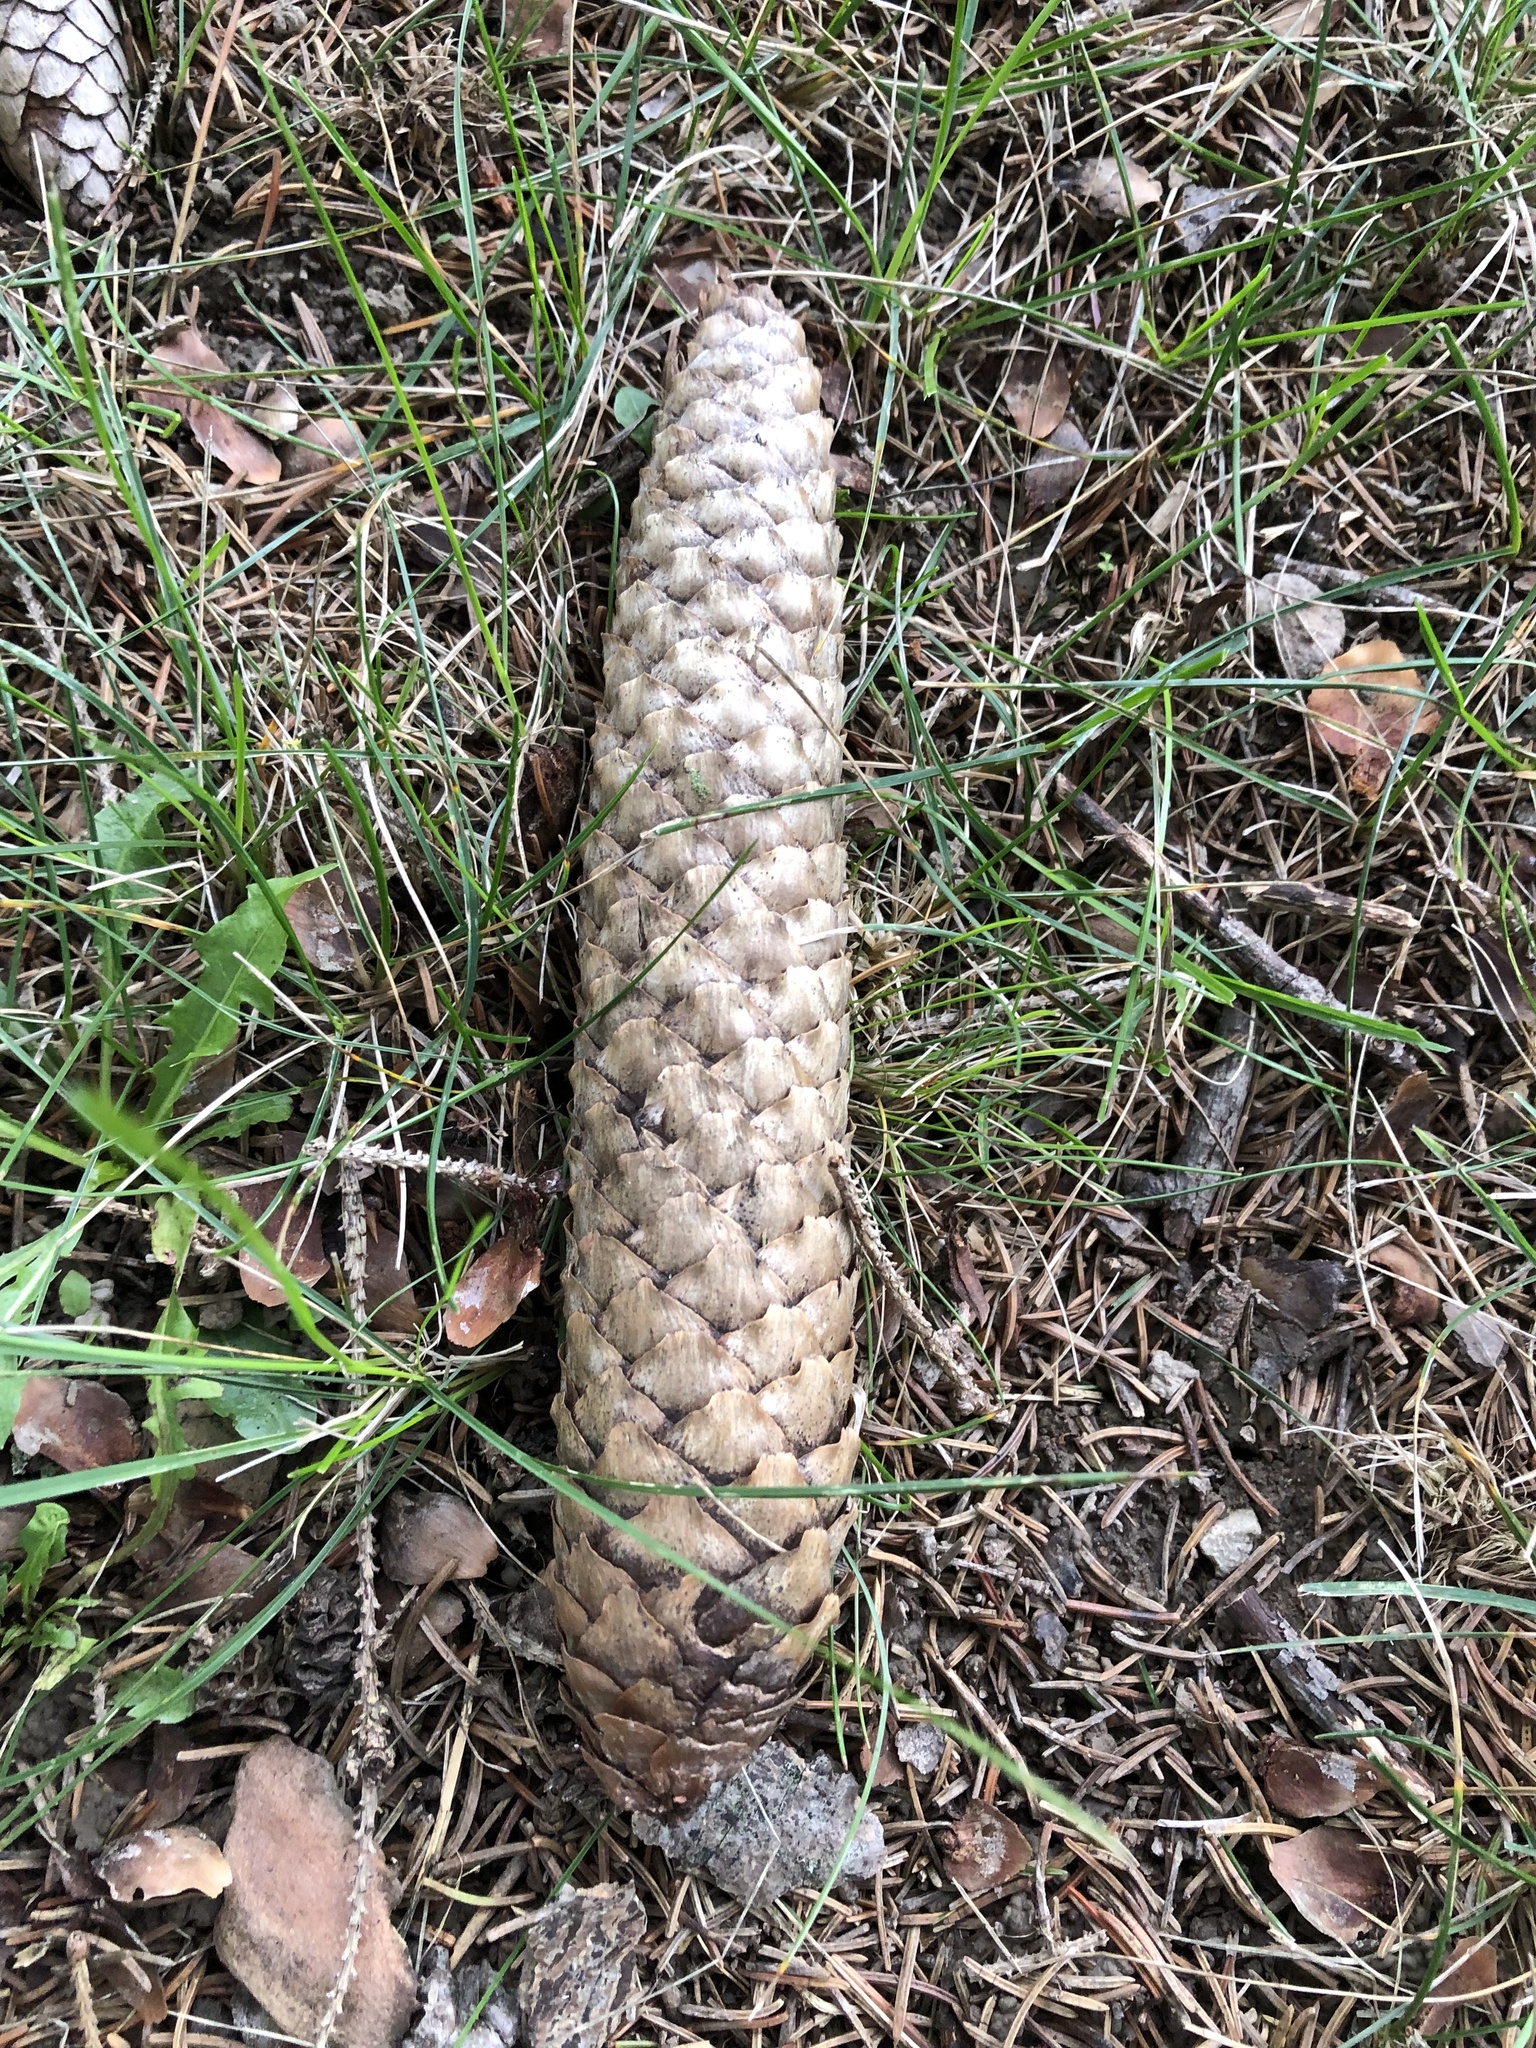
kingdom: Plantae
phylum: Tracheophyta
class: Pinopsida
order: Pinales
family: Pinaceae
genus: Picea
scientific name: Picea abies
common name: Norway spruce
